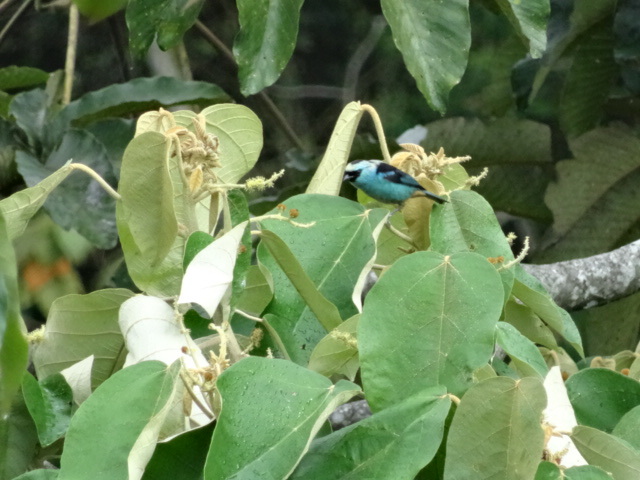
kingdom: Animalia
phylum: Chordata
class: Aves
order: Passeriformes
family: Thraupidae
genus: Tangara
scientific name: Tangara labradorides
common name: Metallic-green tanager
